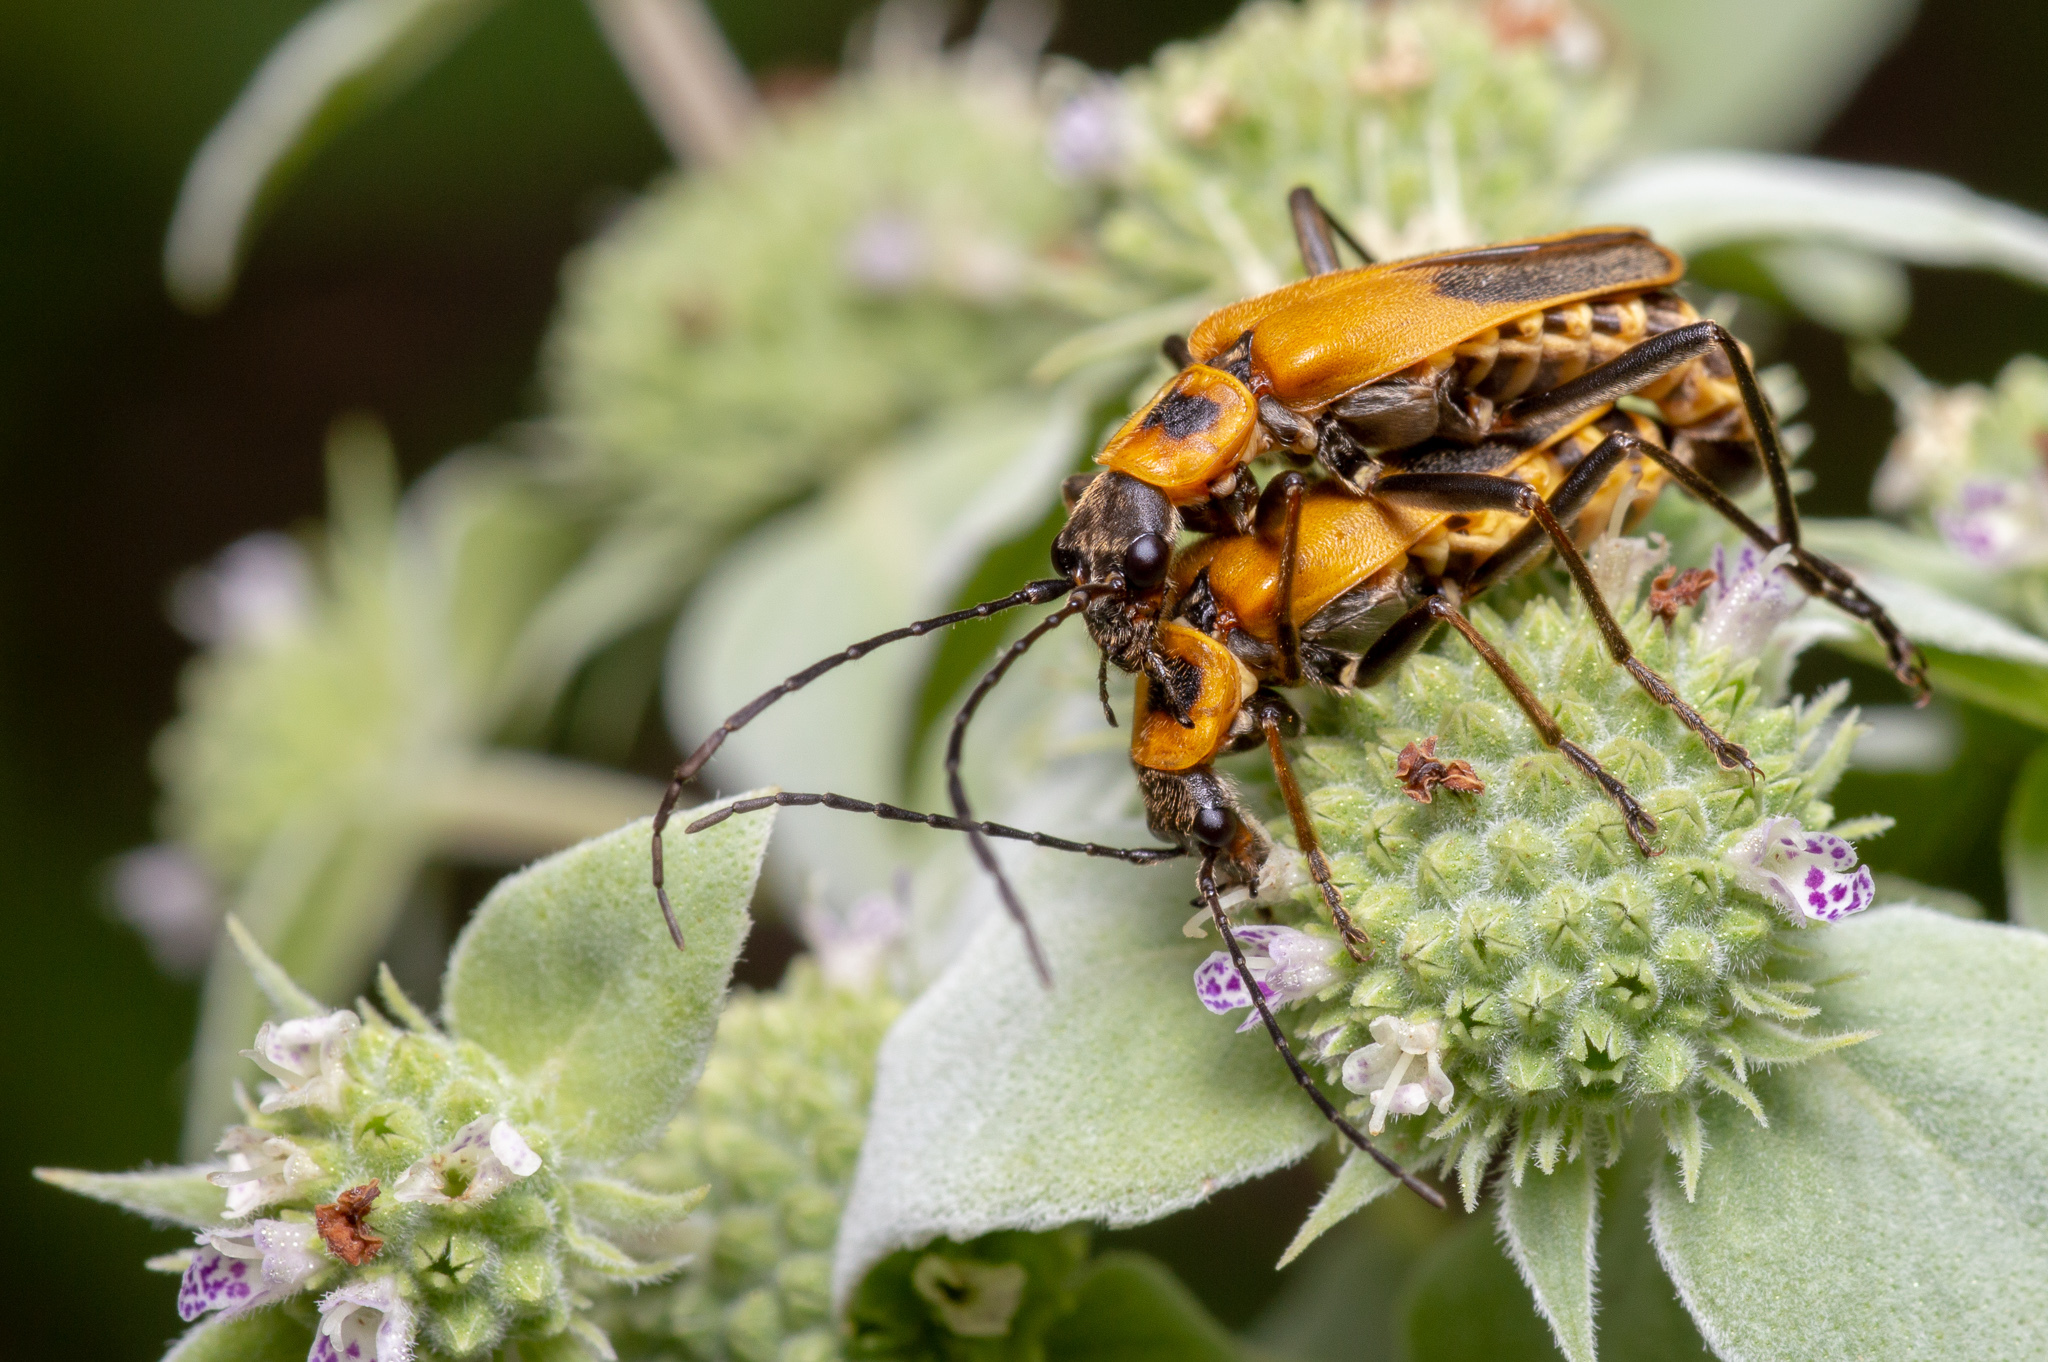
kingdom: Animalia
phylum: Arthropoda
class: Insecta
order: Coleoptera
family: Cantharidae
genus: Chauliognathus
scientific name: Chauliognathus pensylvanicus
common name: Goldenrod soldier beetle
